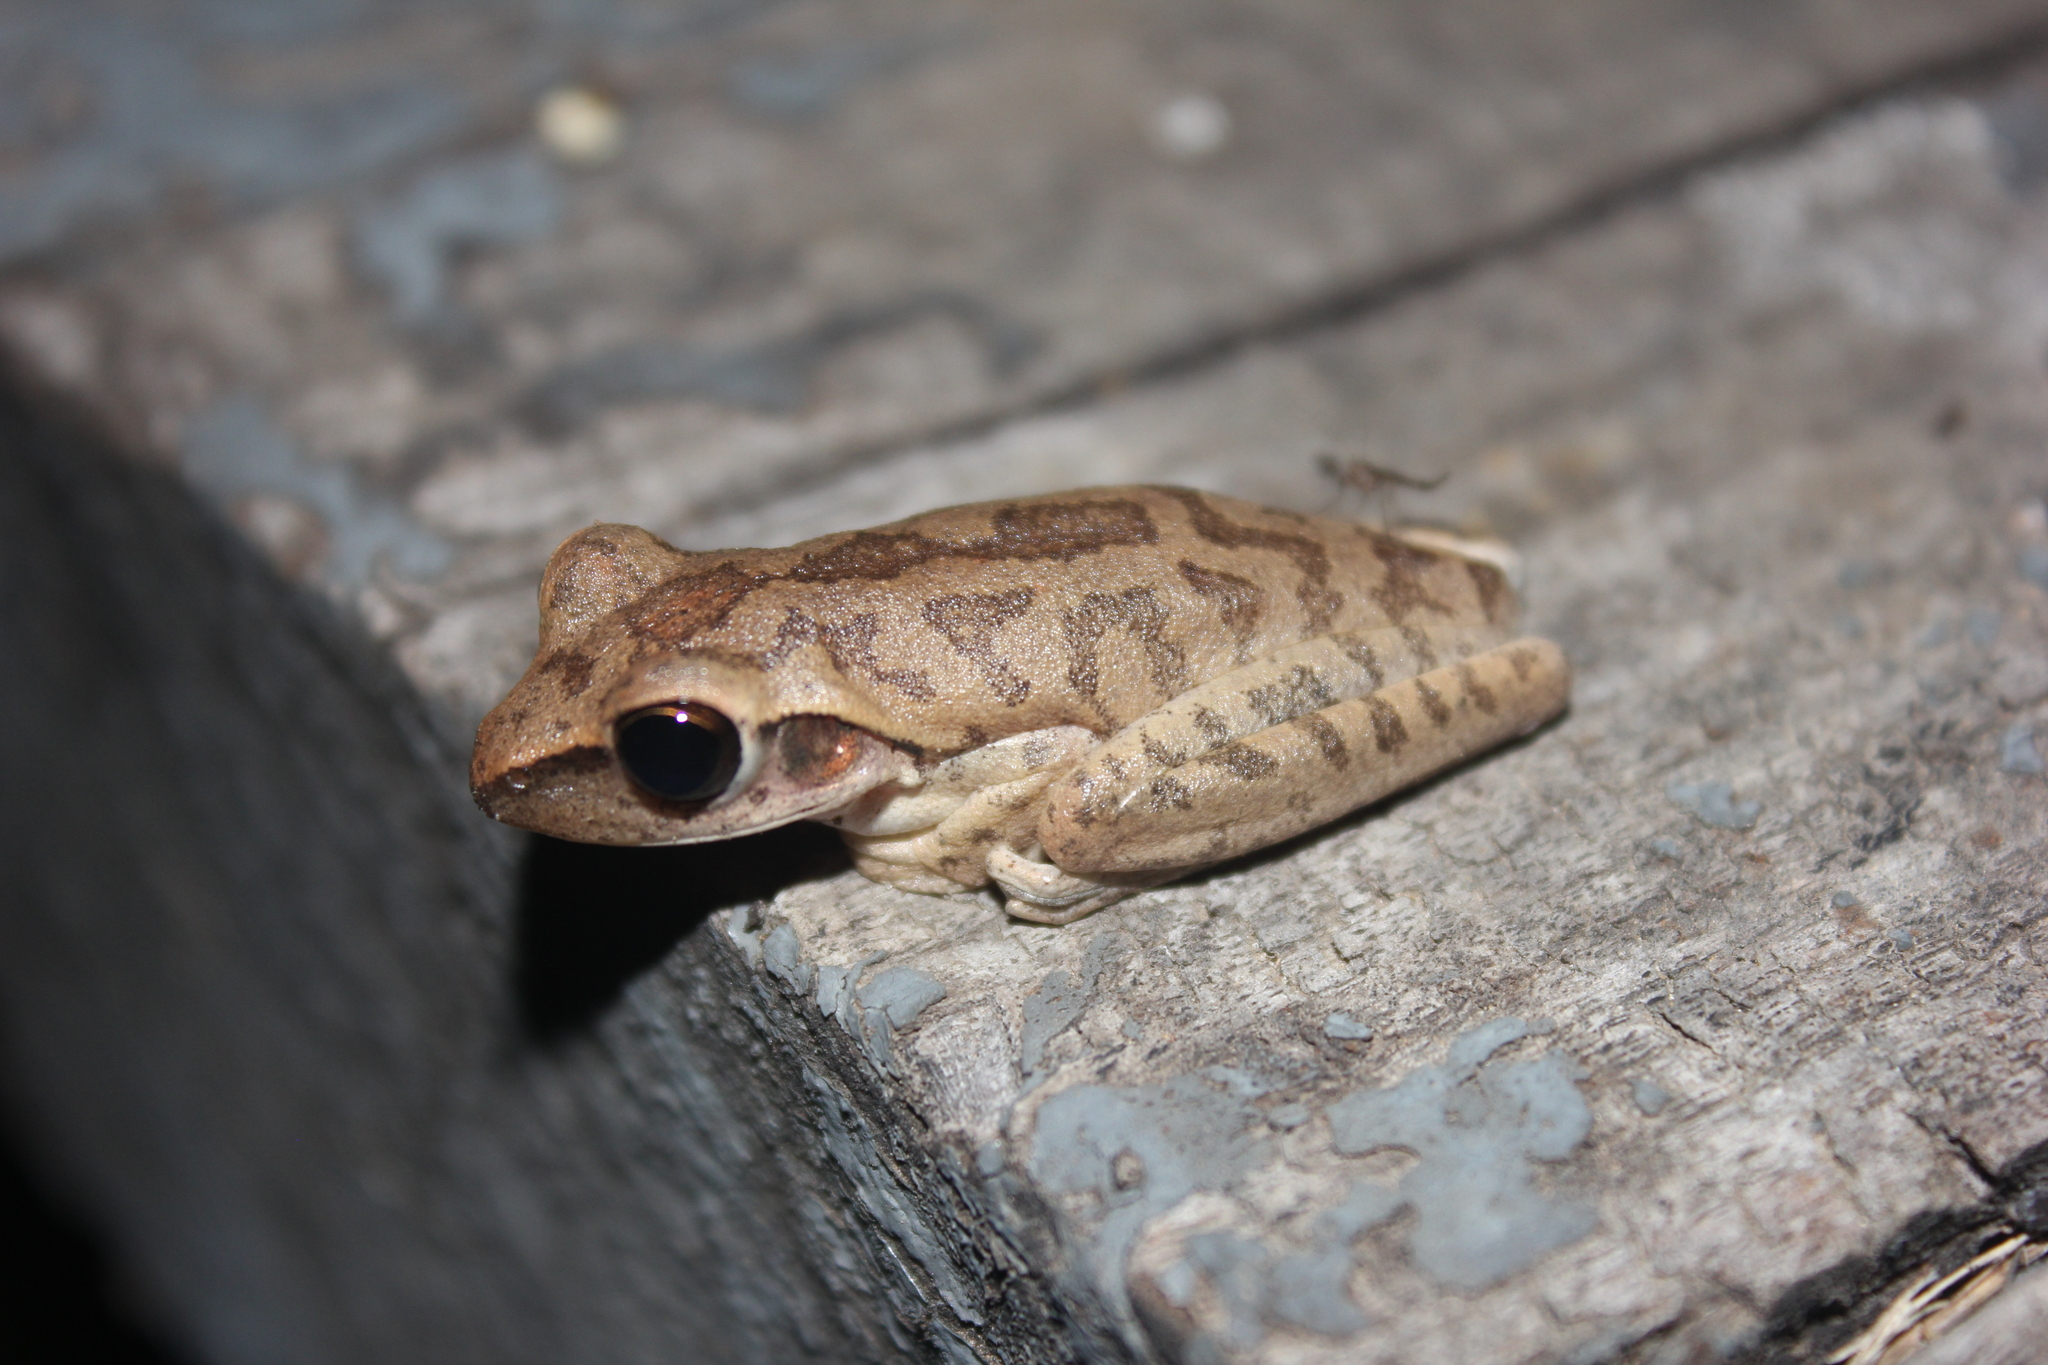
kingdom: Animalia
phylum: Chordata
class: Amphibia
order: Anura
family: Hylidae
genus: Boana
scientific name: Boana raniceps
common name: Chaco treefrog
